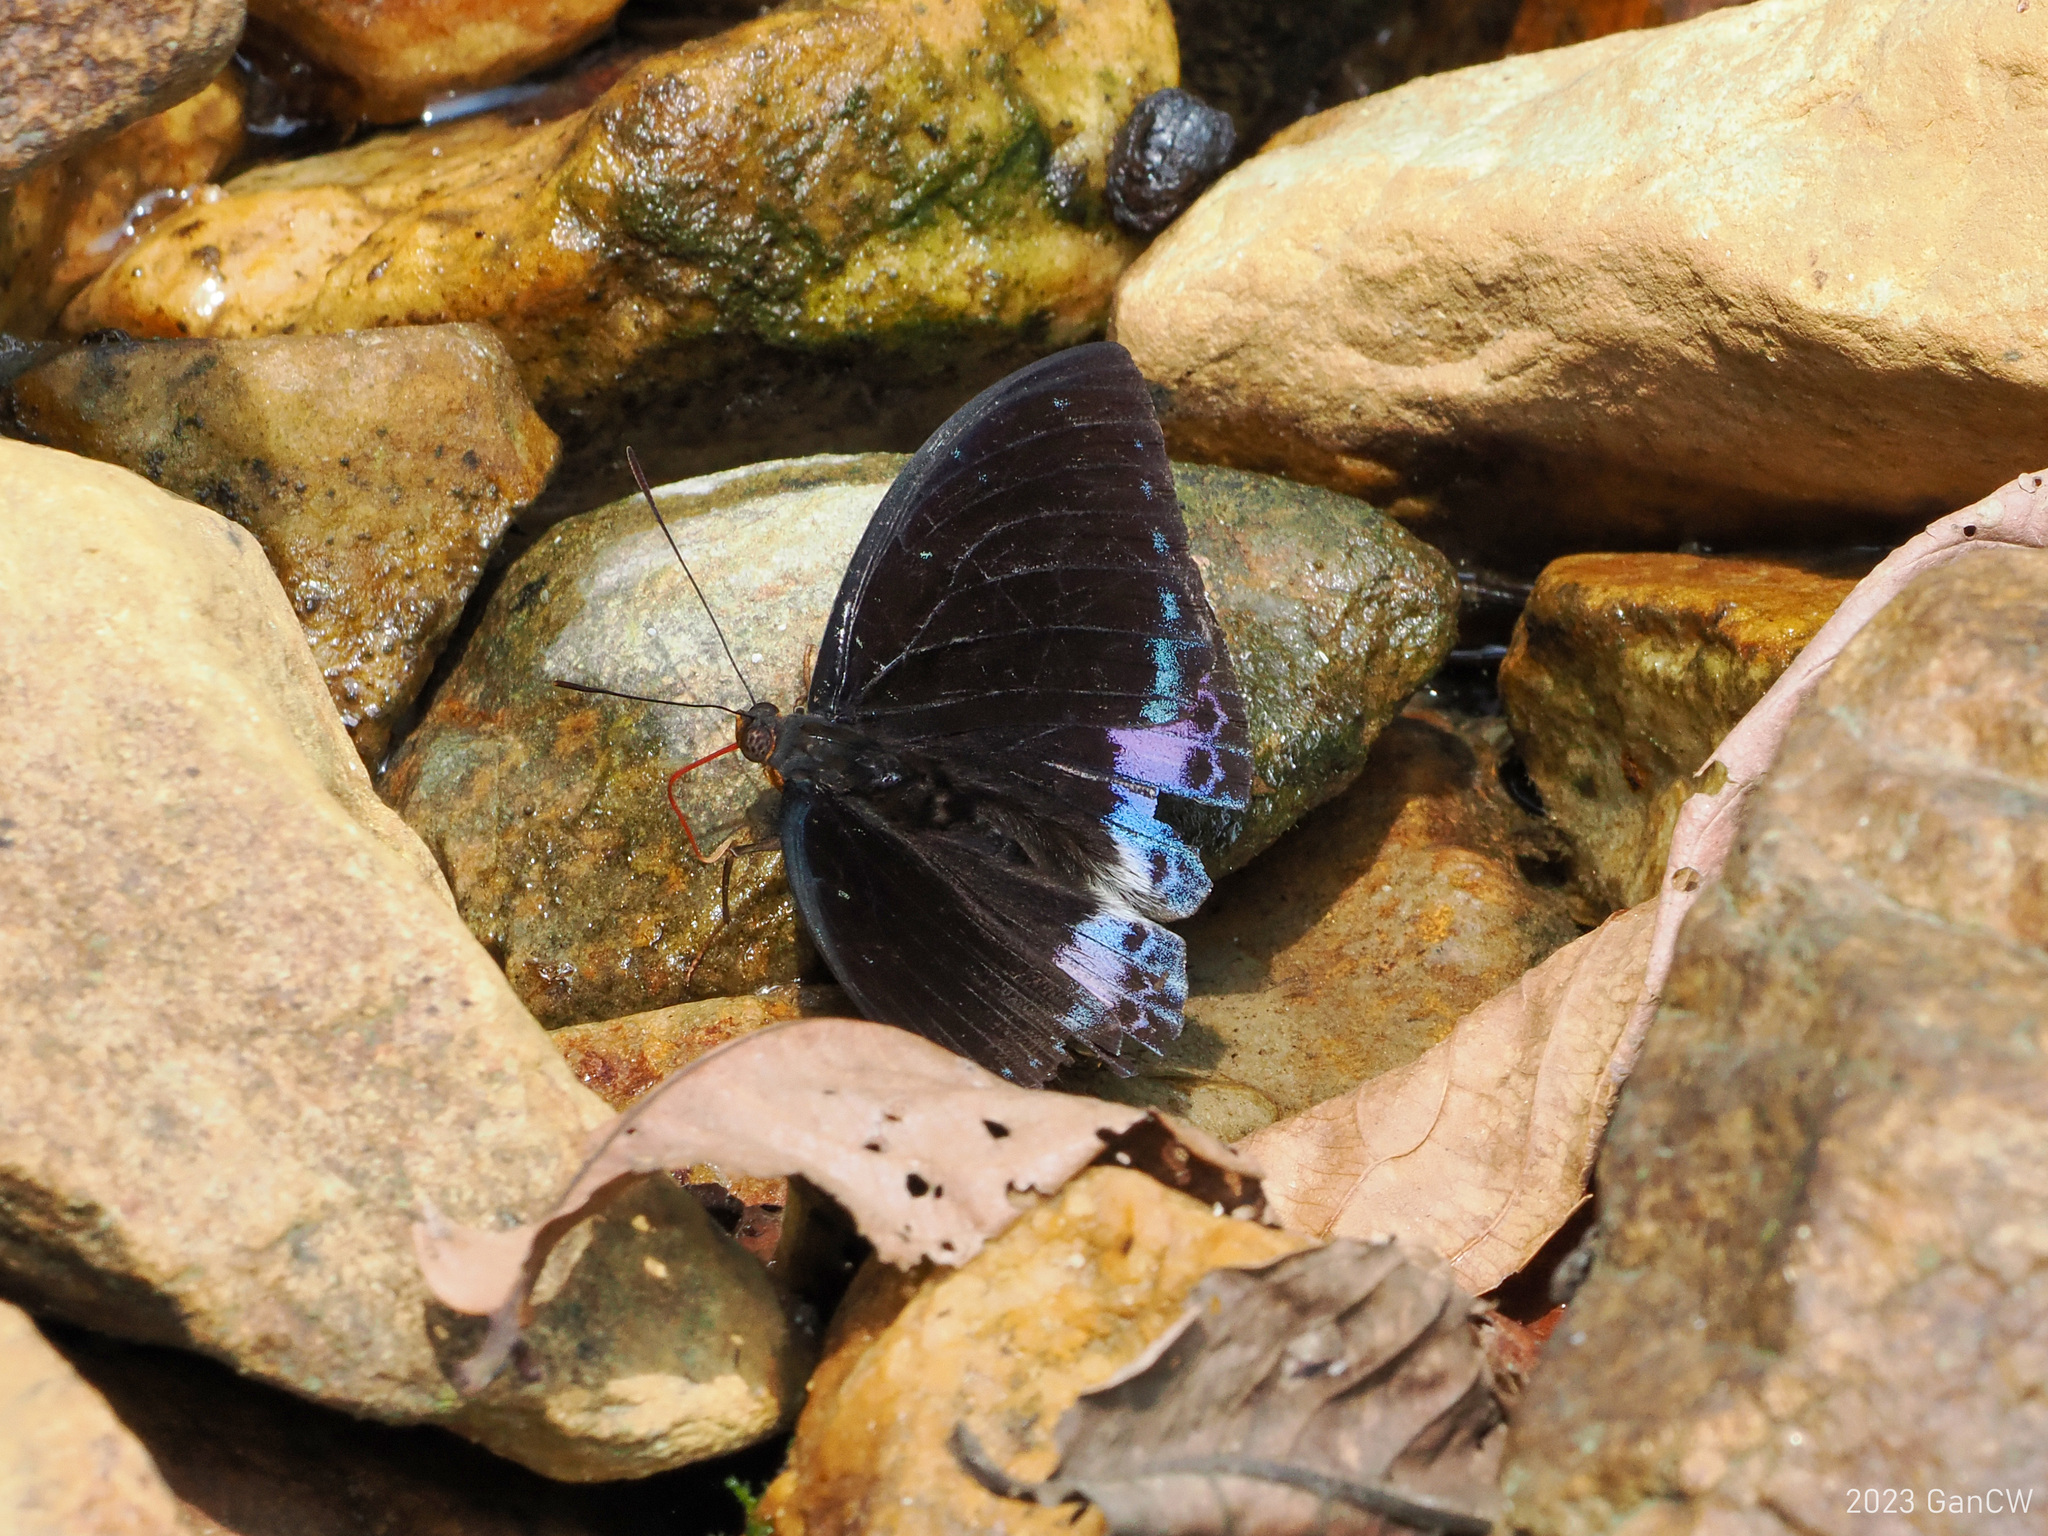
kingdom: Animalia
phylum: Arthropoda
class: Insecta
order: Lepidoptera
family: Nymphalidae
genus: Lexias
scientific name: Lexias dirtea
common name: Black-tipped archduke
